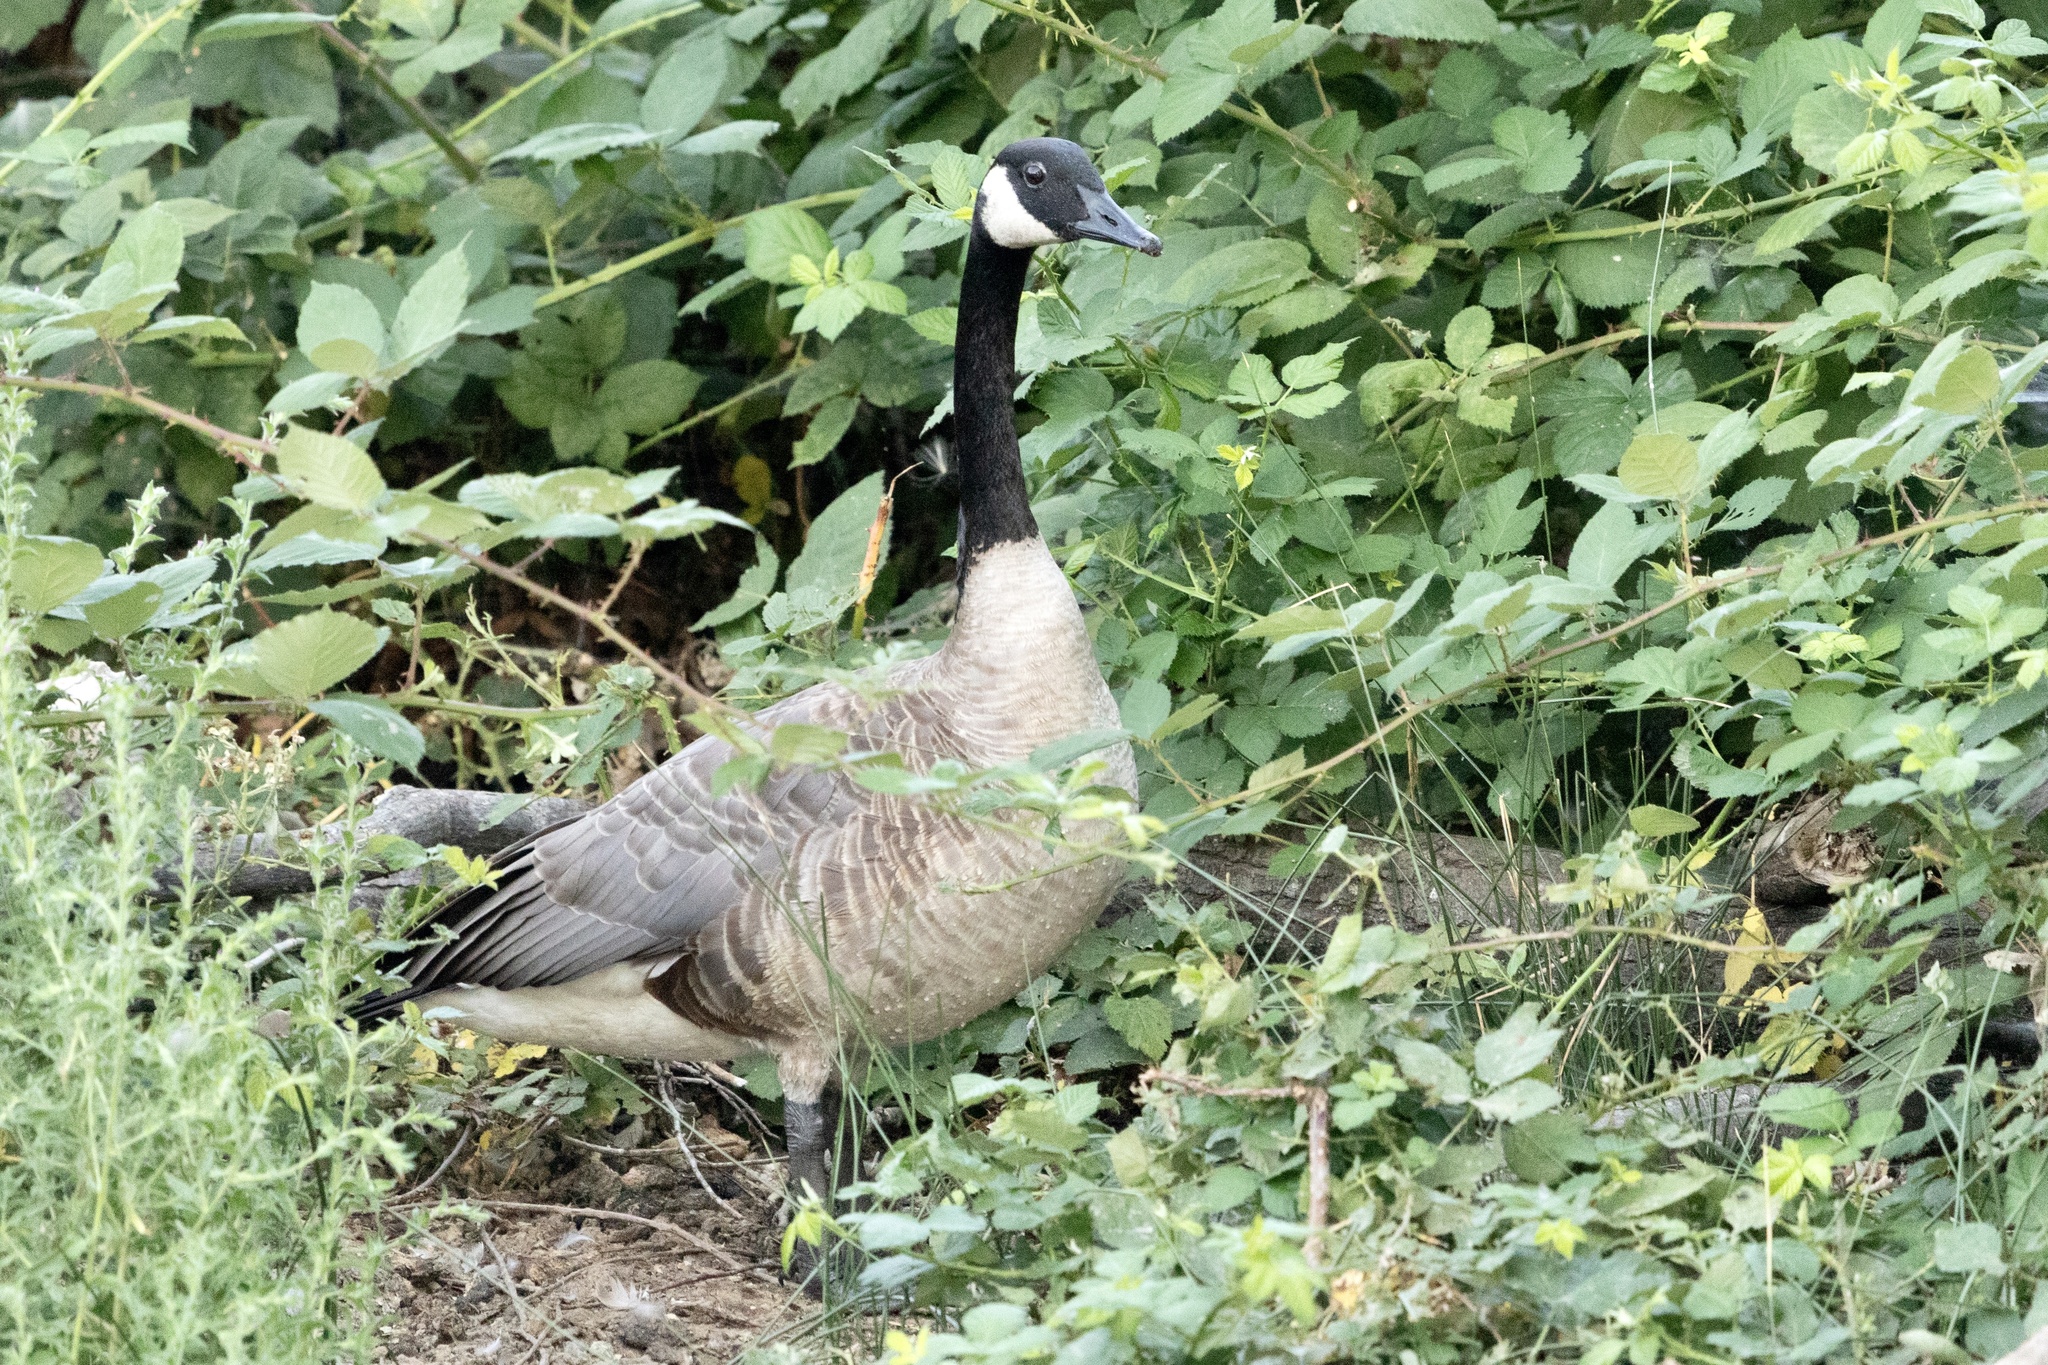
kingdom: Animalia
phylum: Chordata
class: Aves
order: Anseriformes
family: Anatidae
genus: Branta
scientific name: Branta canadensis
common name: Canada goose
